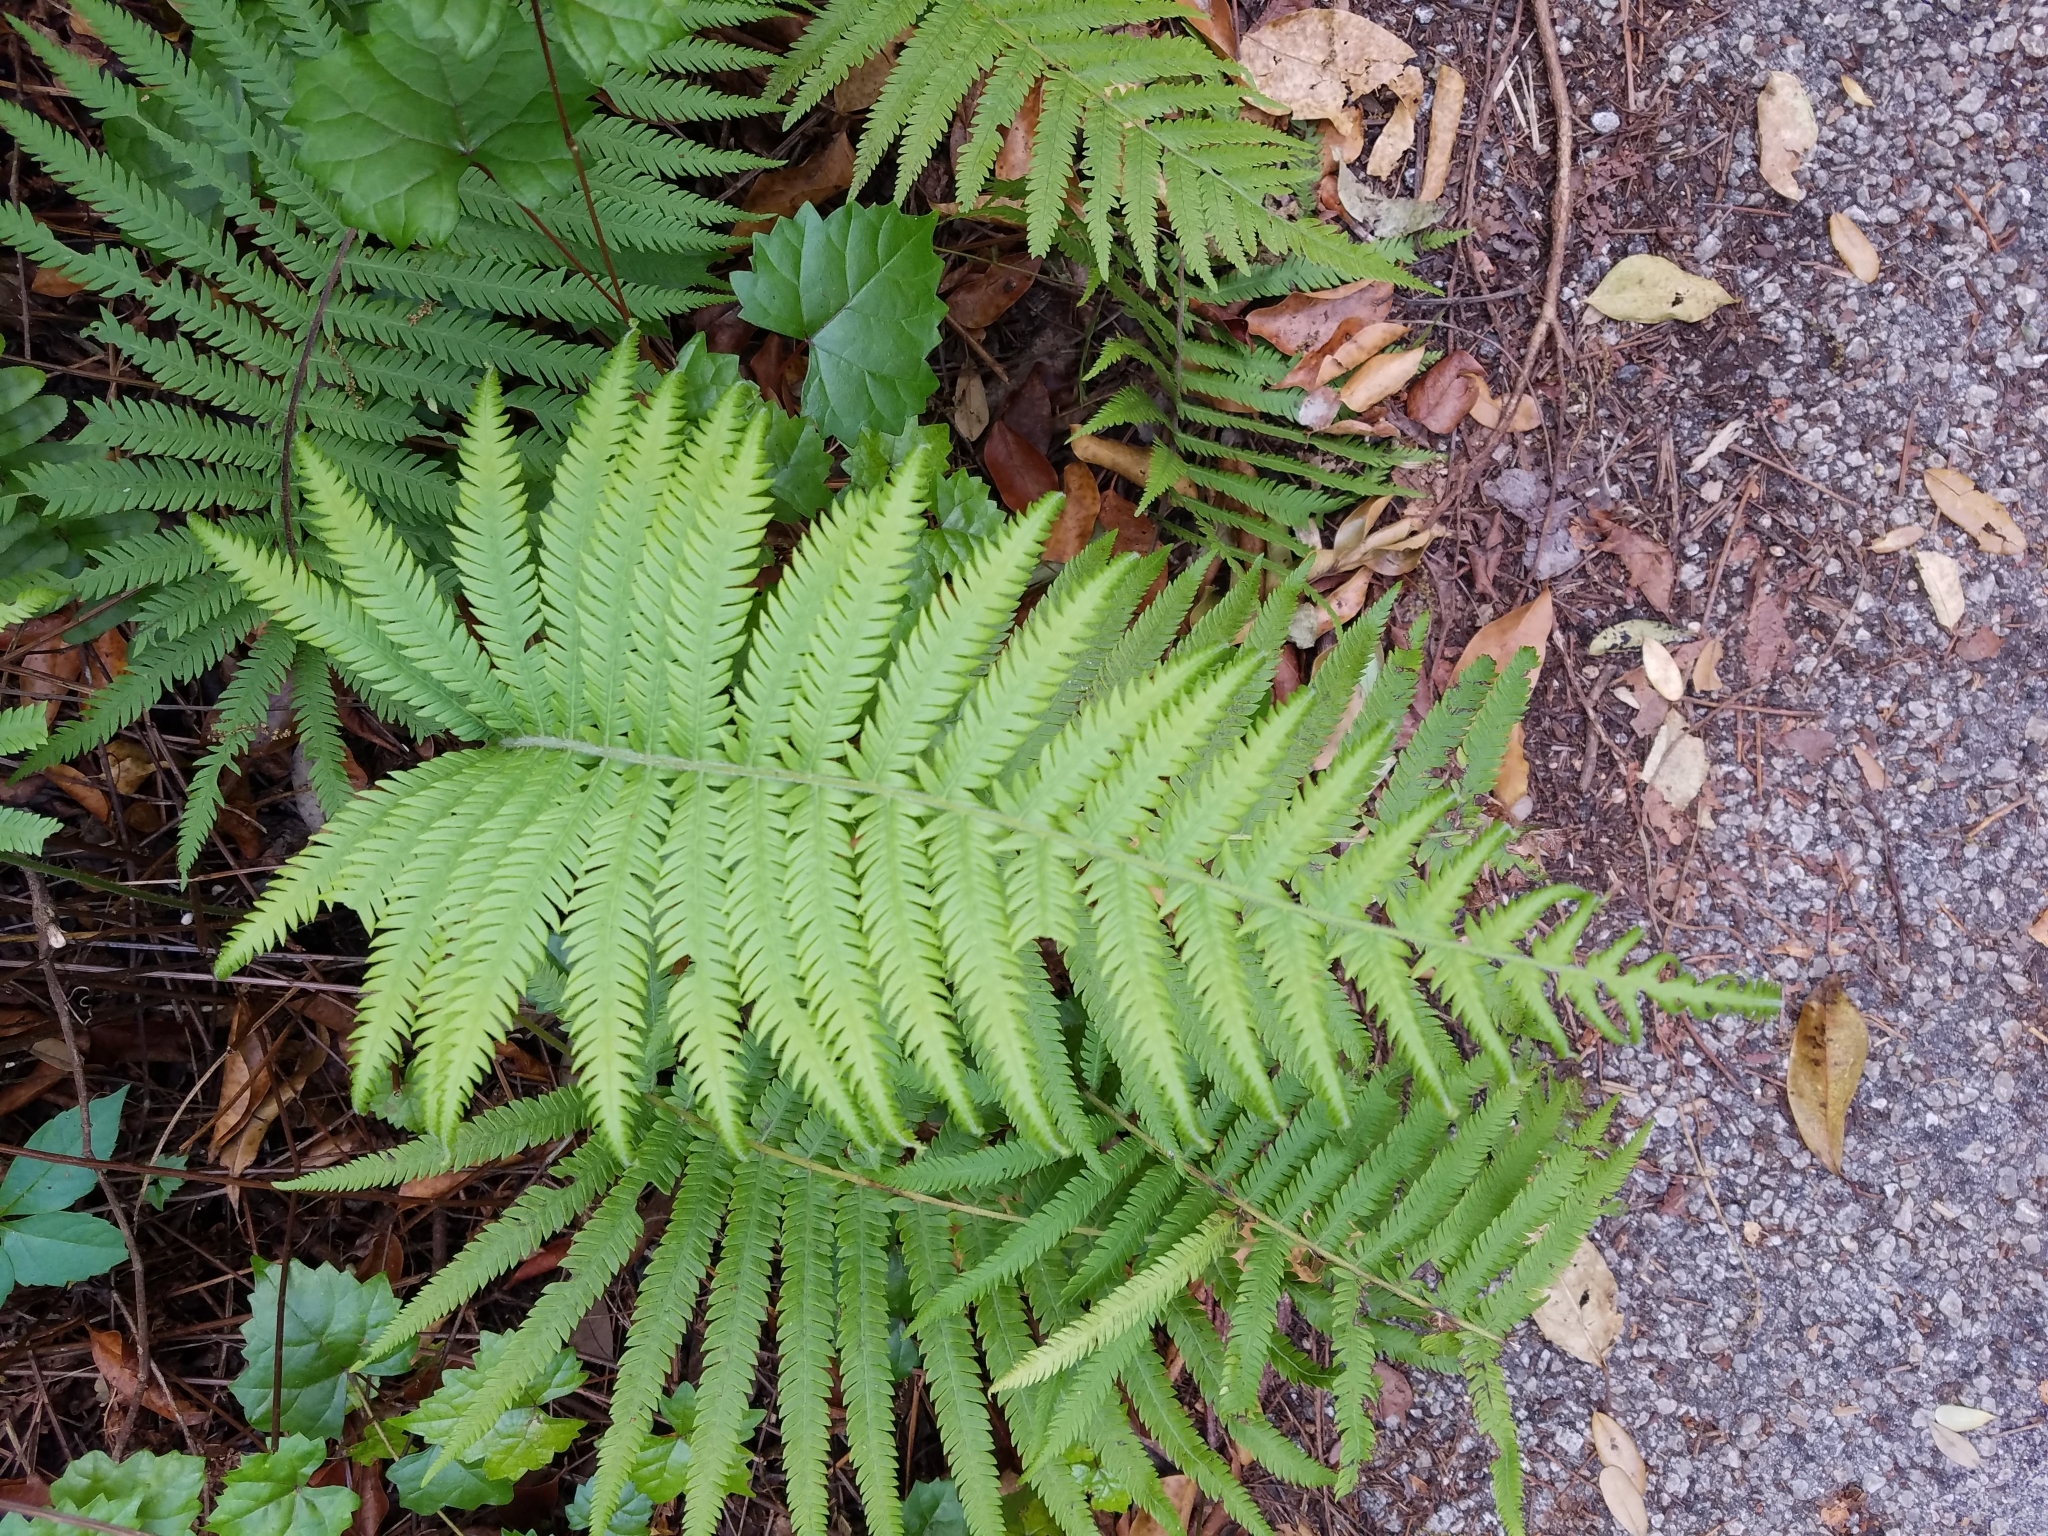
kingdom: Plantae
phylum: Tracheophyta
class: Polypodiopsida
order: Polypodiales
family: Thelypteridaceae
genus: Pelazoneuron
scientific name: Pelazoneuron kunthii
